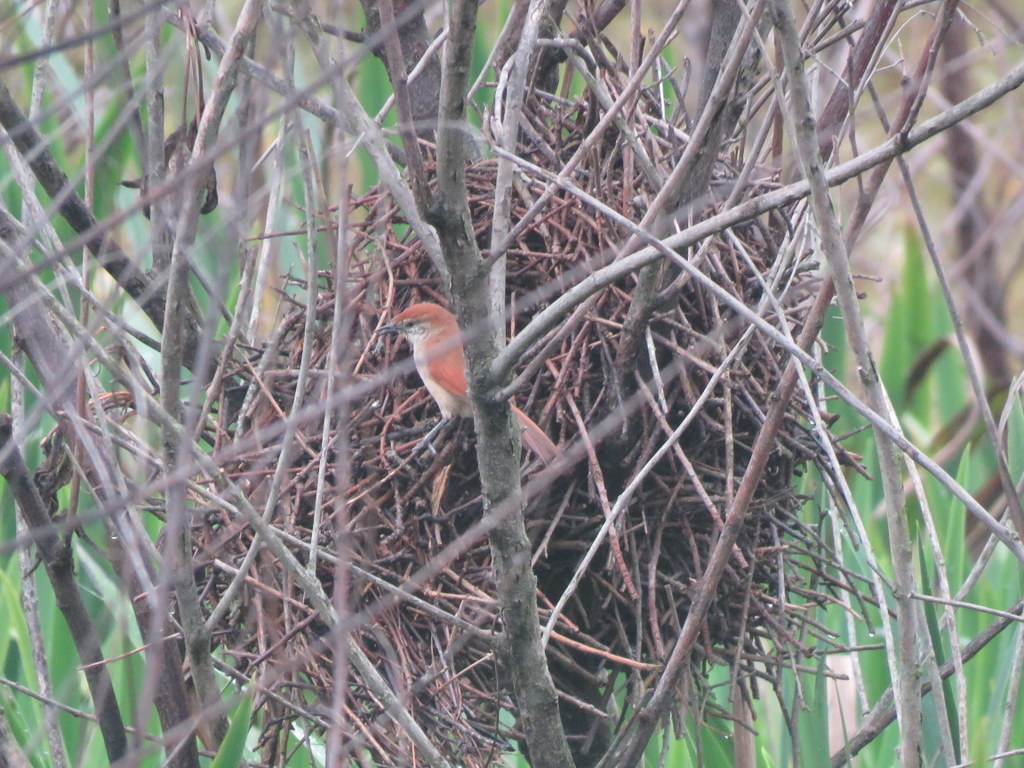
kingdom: Animalia
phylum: Chordata
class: Aves
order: Passeriformes
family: Furnariidae
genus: Certhiaxis
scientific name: Certhiaxis cinnamomeus
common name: Yellow-chinned spinetail
